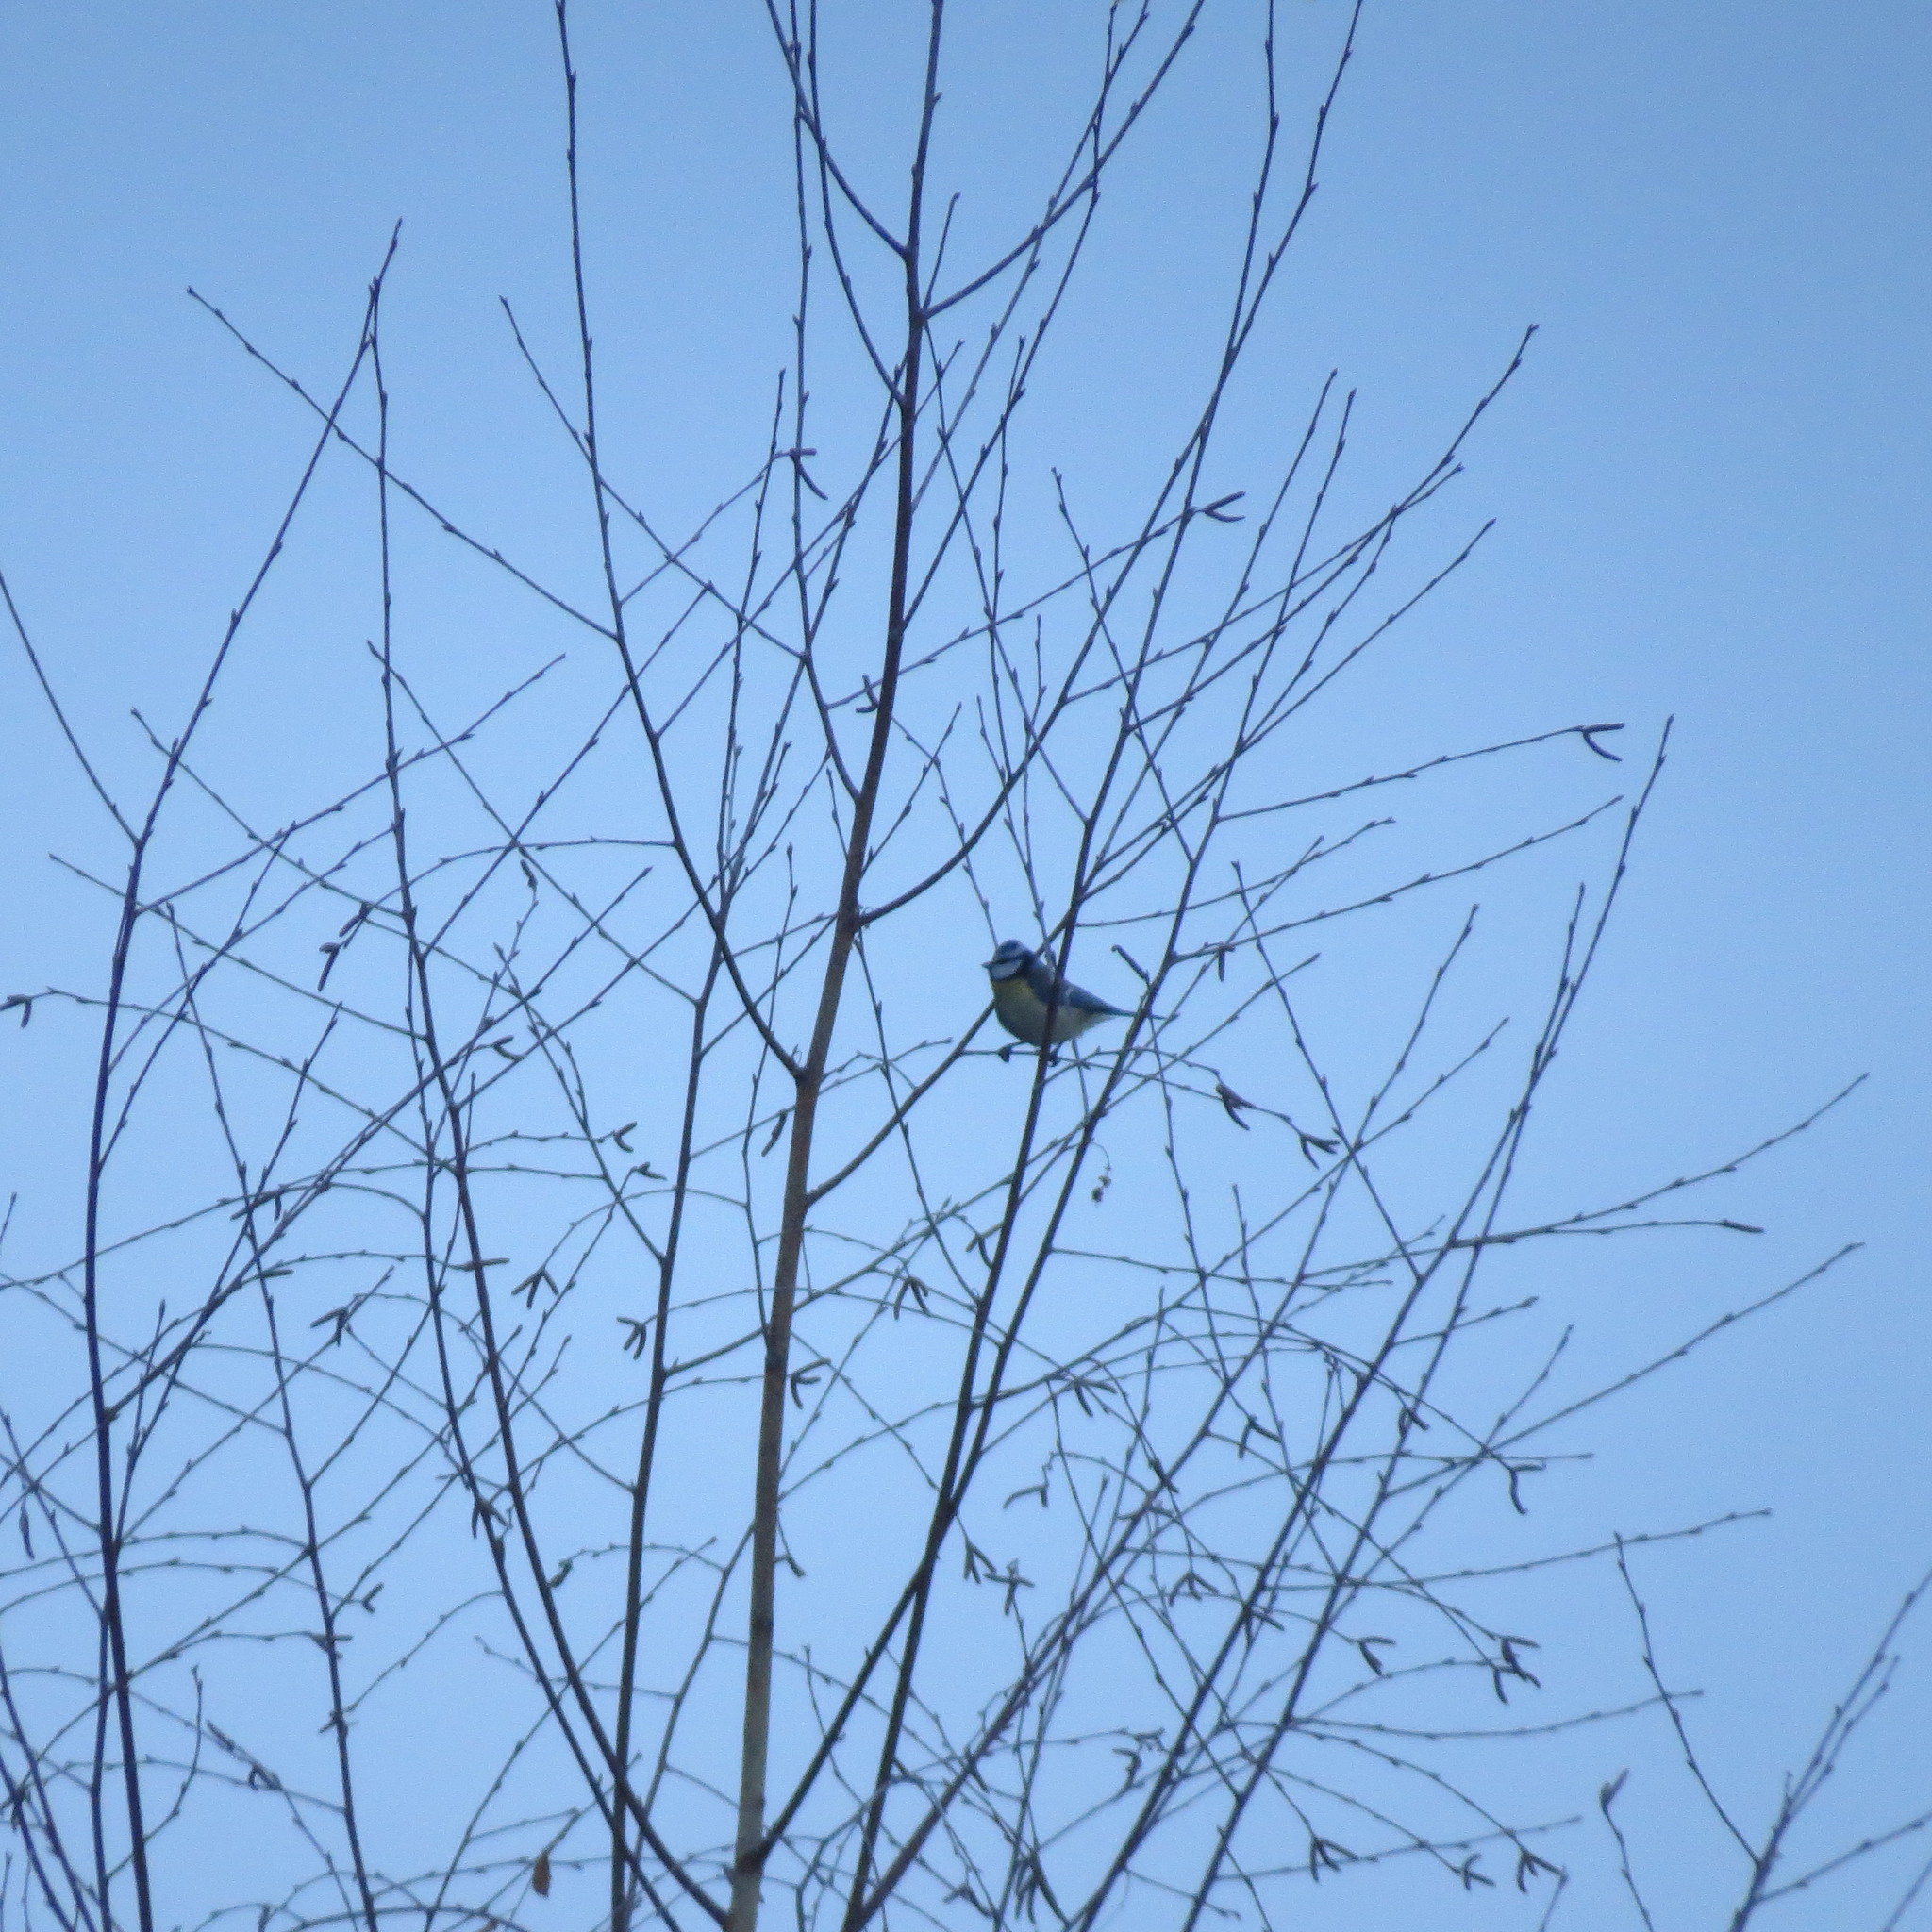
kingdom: Animalia
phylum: Chordata
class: Aves
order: Passeriformes
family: Paridae
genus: Cyanistes
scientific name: Cyanistes caeruleus
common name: Eurasian blue tit
